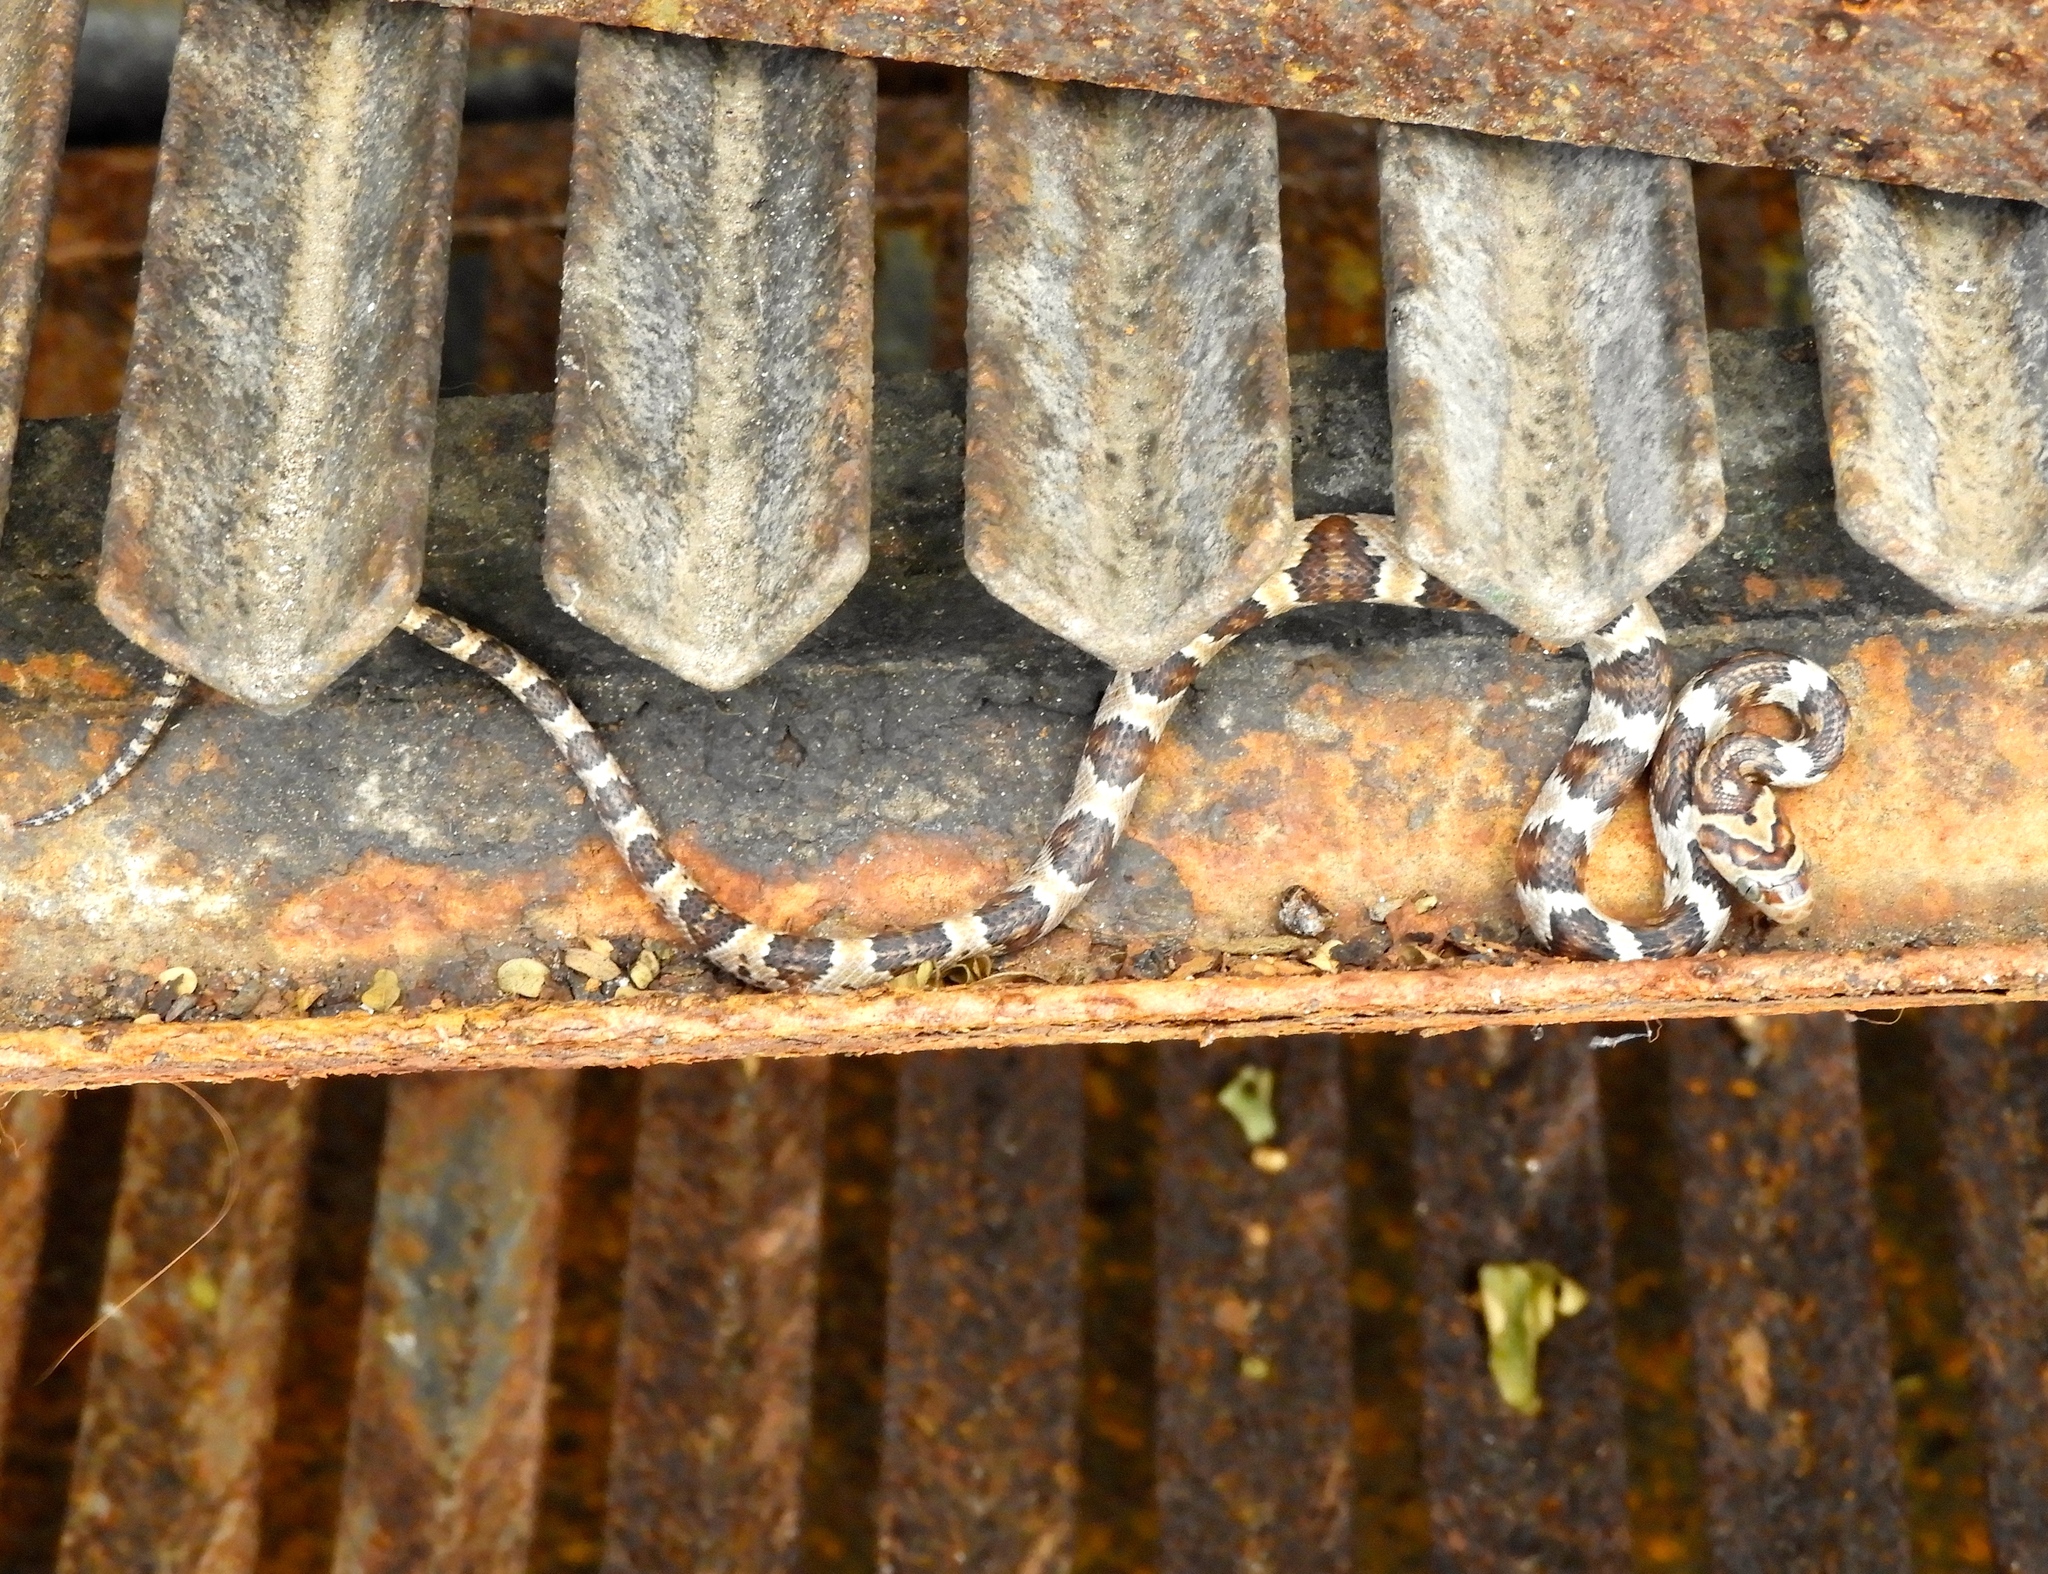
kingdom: Animalia
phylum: Chordata
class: Squamata
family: Colubridae
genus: Trimorphodon
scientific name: Trimorphodon paucimaculatus
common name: Sinaloan lyresnake
